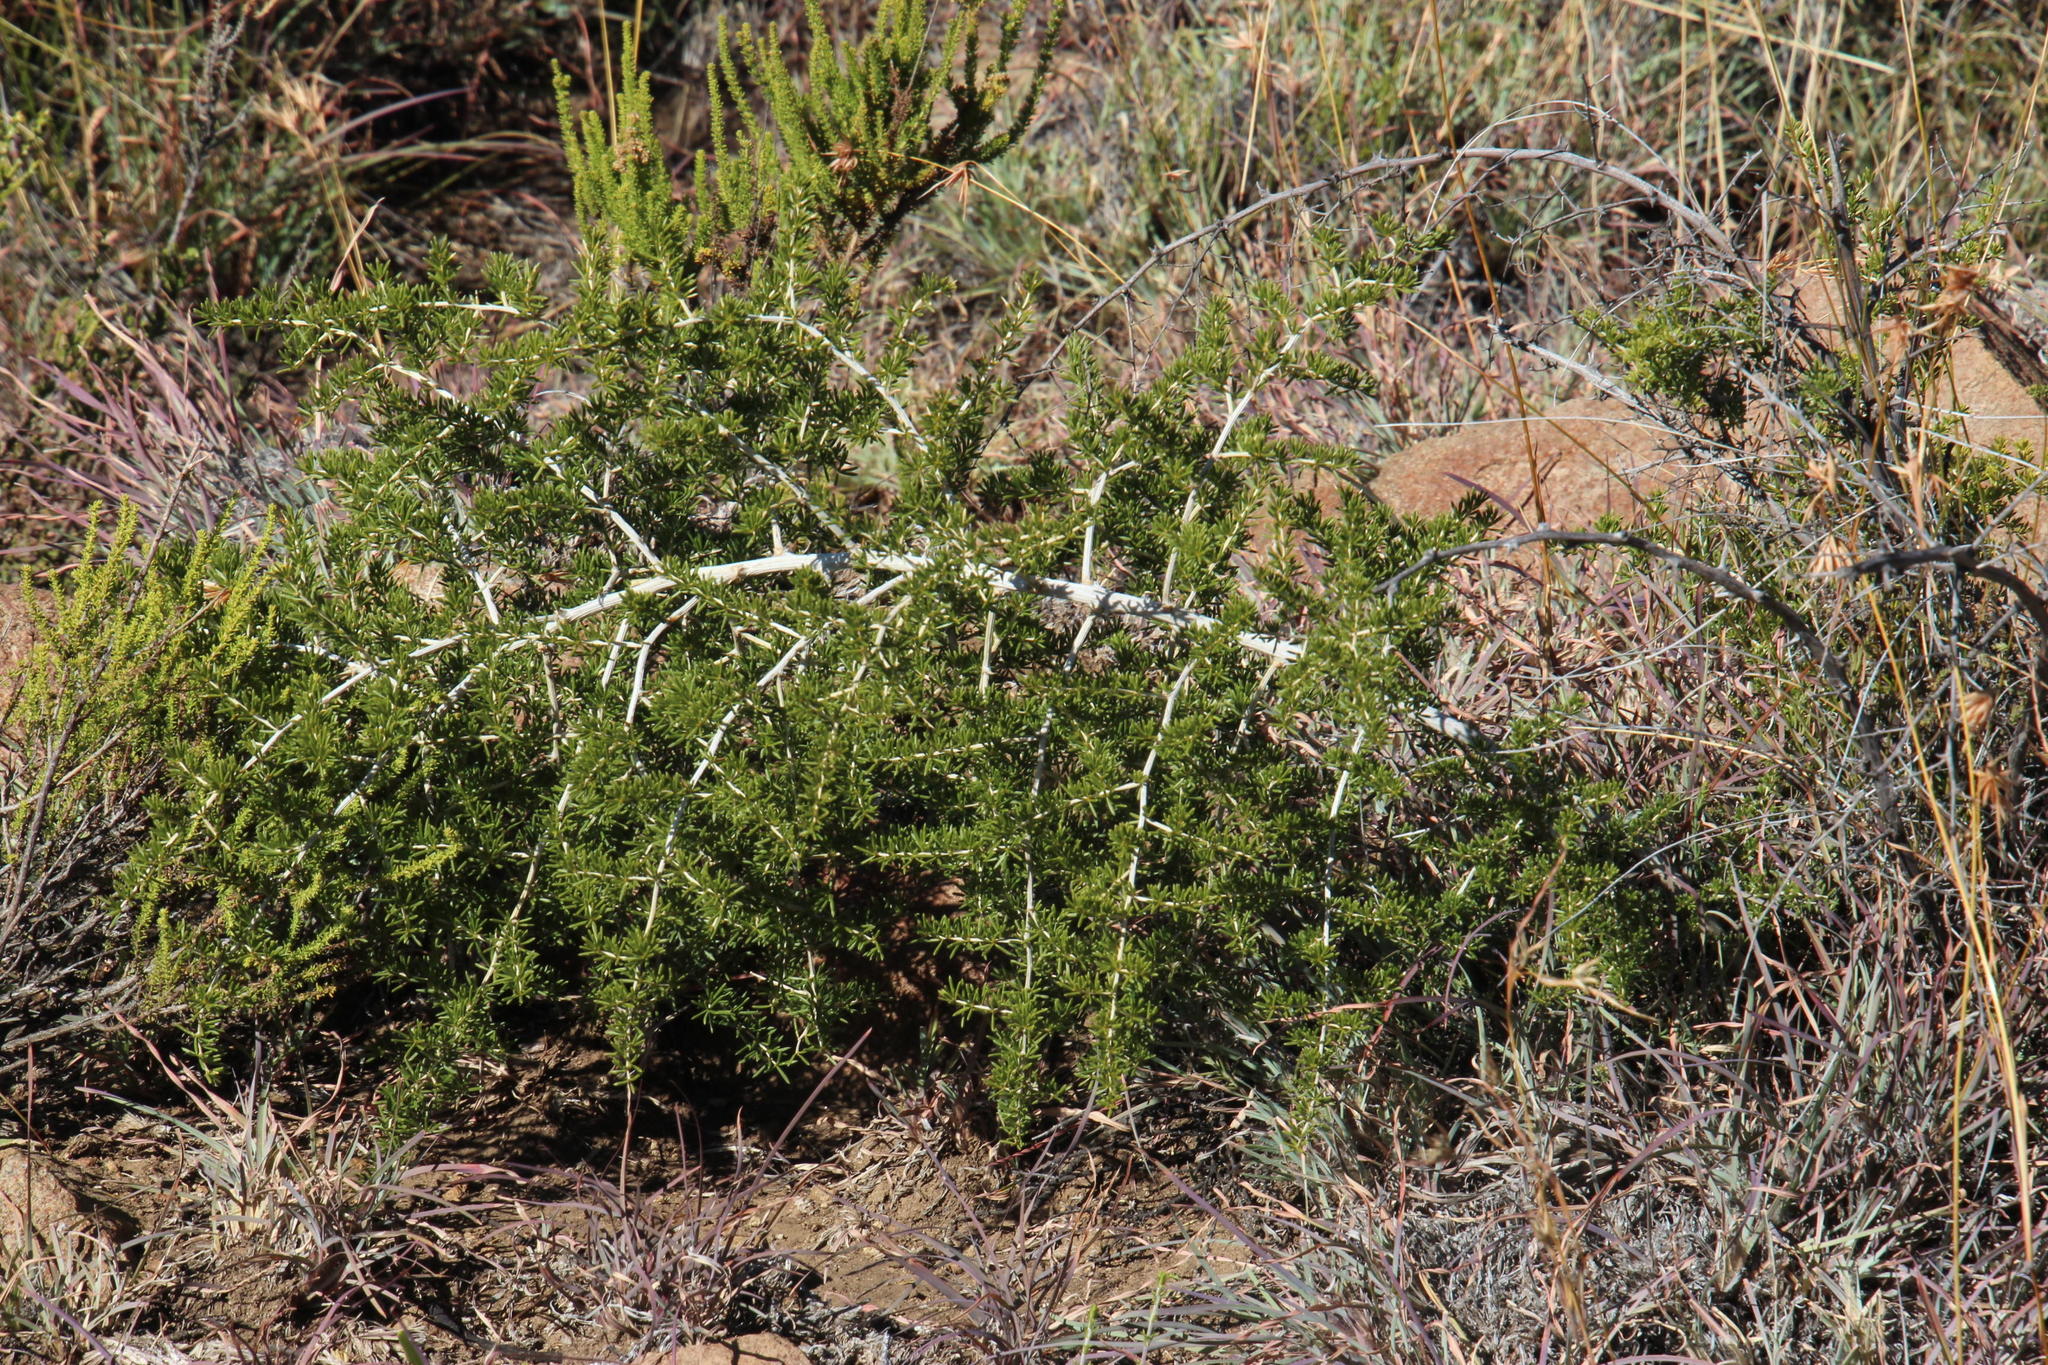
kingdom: Plantae
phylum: Tracheophyta
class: Liliopsida
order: Asparagales
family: Asparagaceae
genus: Asparagus
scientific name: Asparagus microraphis
